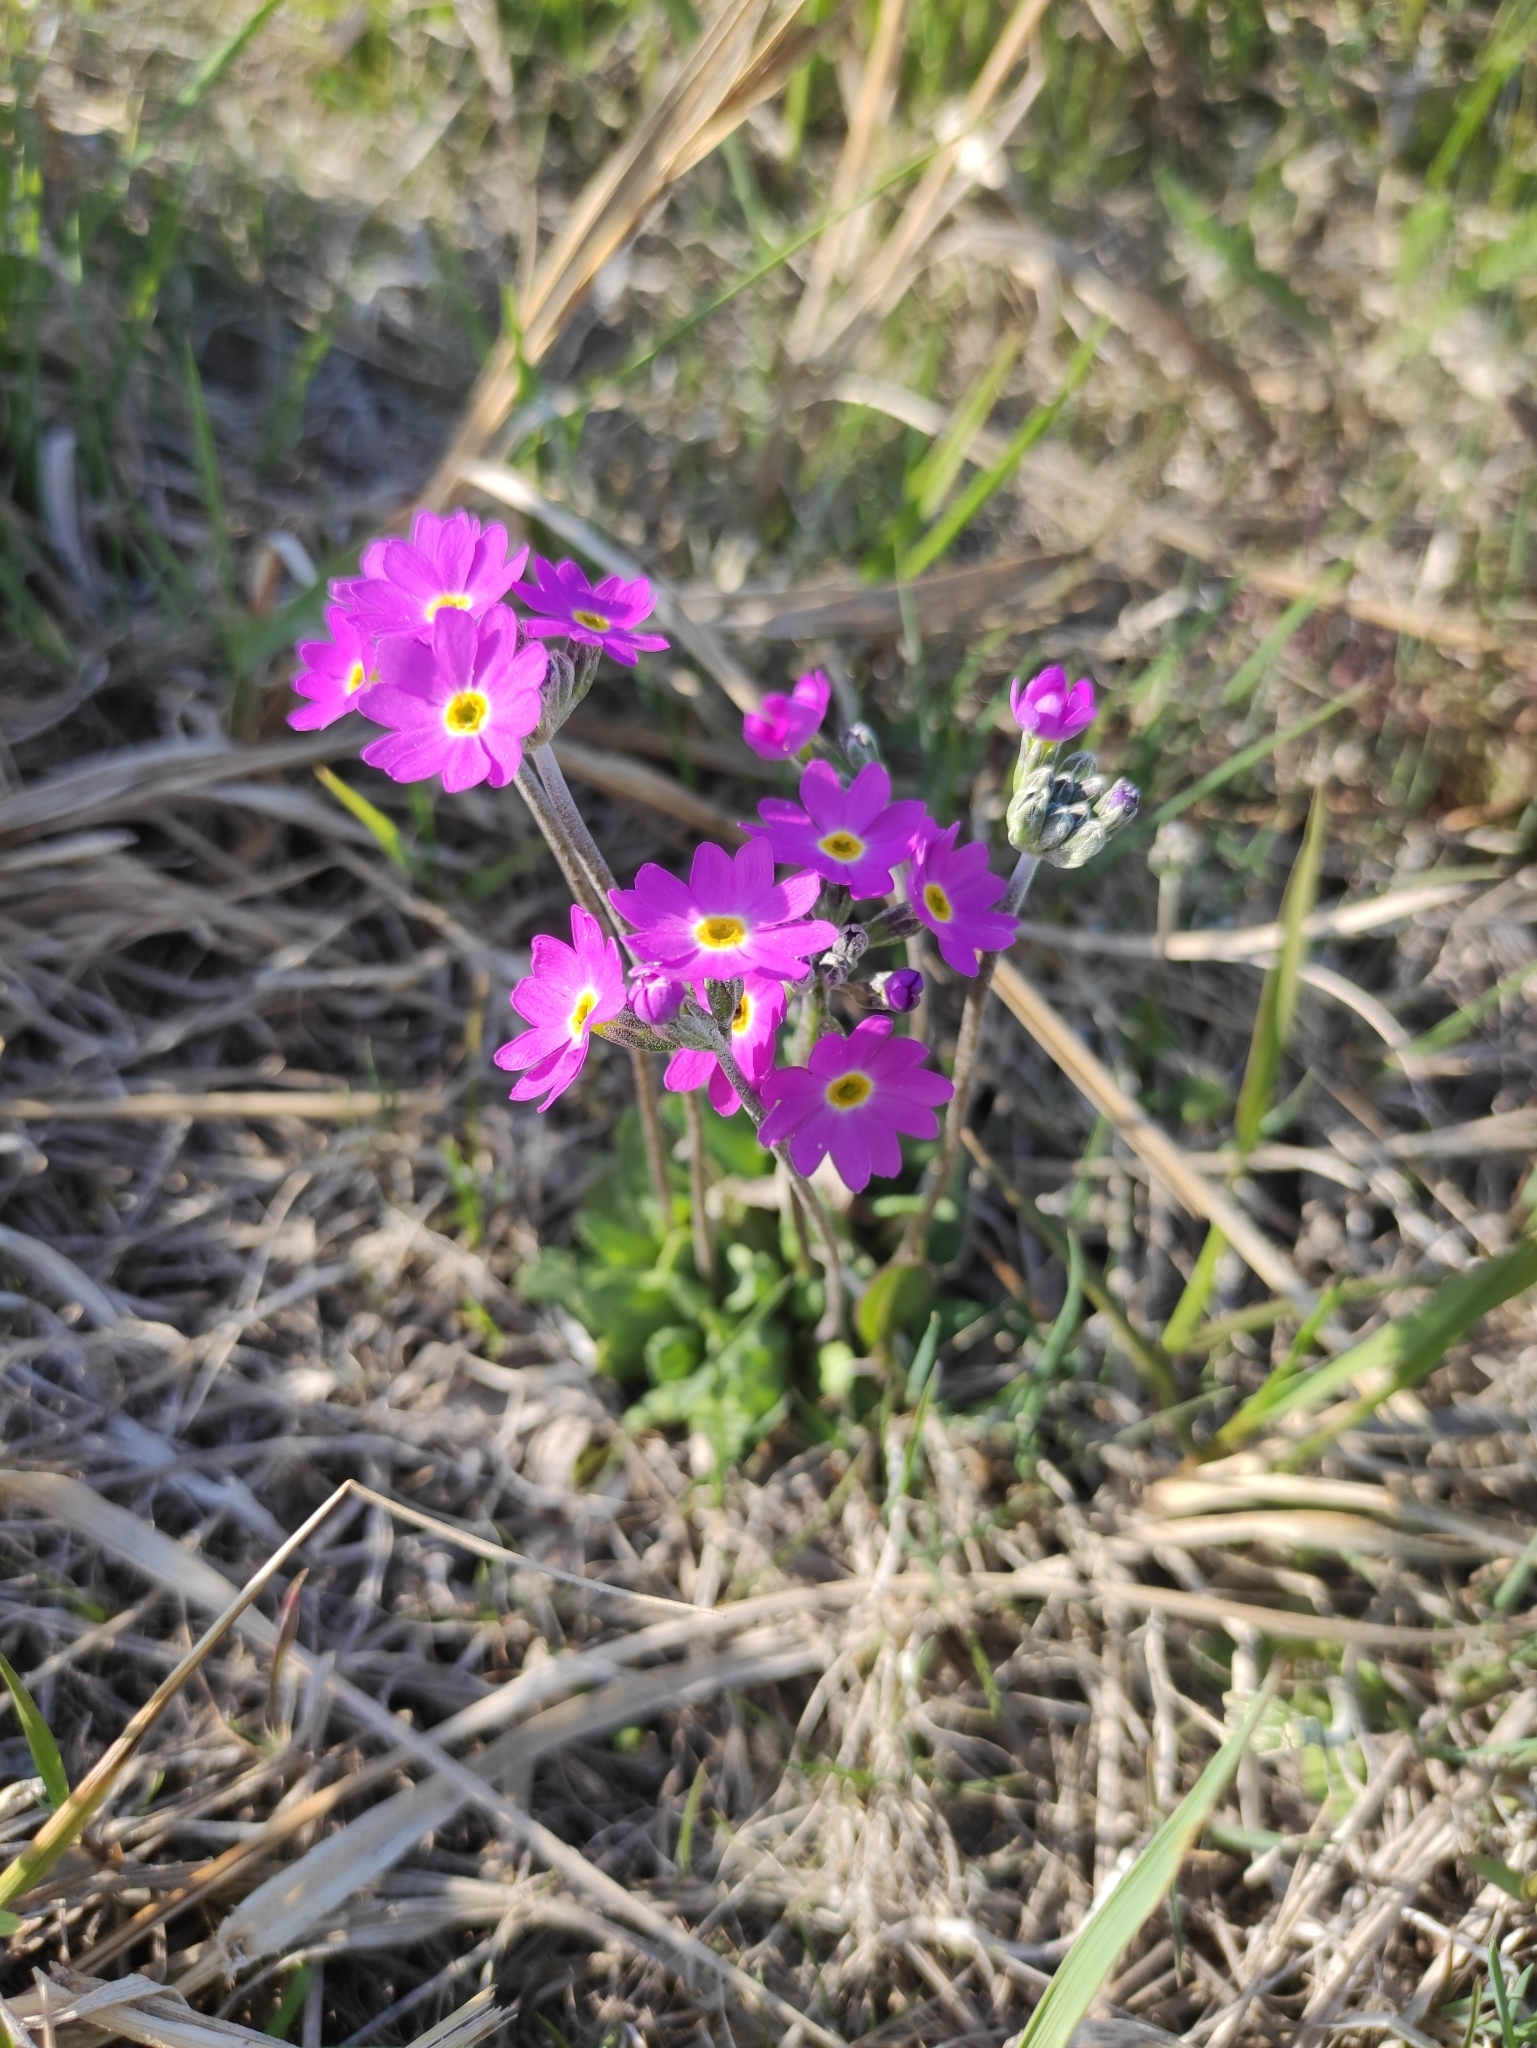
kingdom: Plantae
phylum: Tracheophyta
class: Magnoliopsida
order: Ericales
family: Primulaceae
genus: Primula
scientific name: Primula farinosa
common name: Bird's-eye primrose
